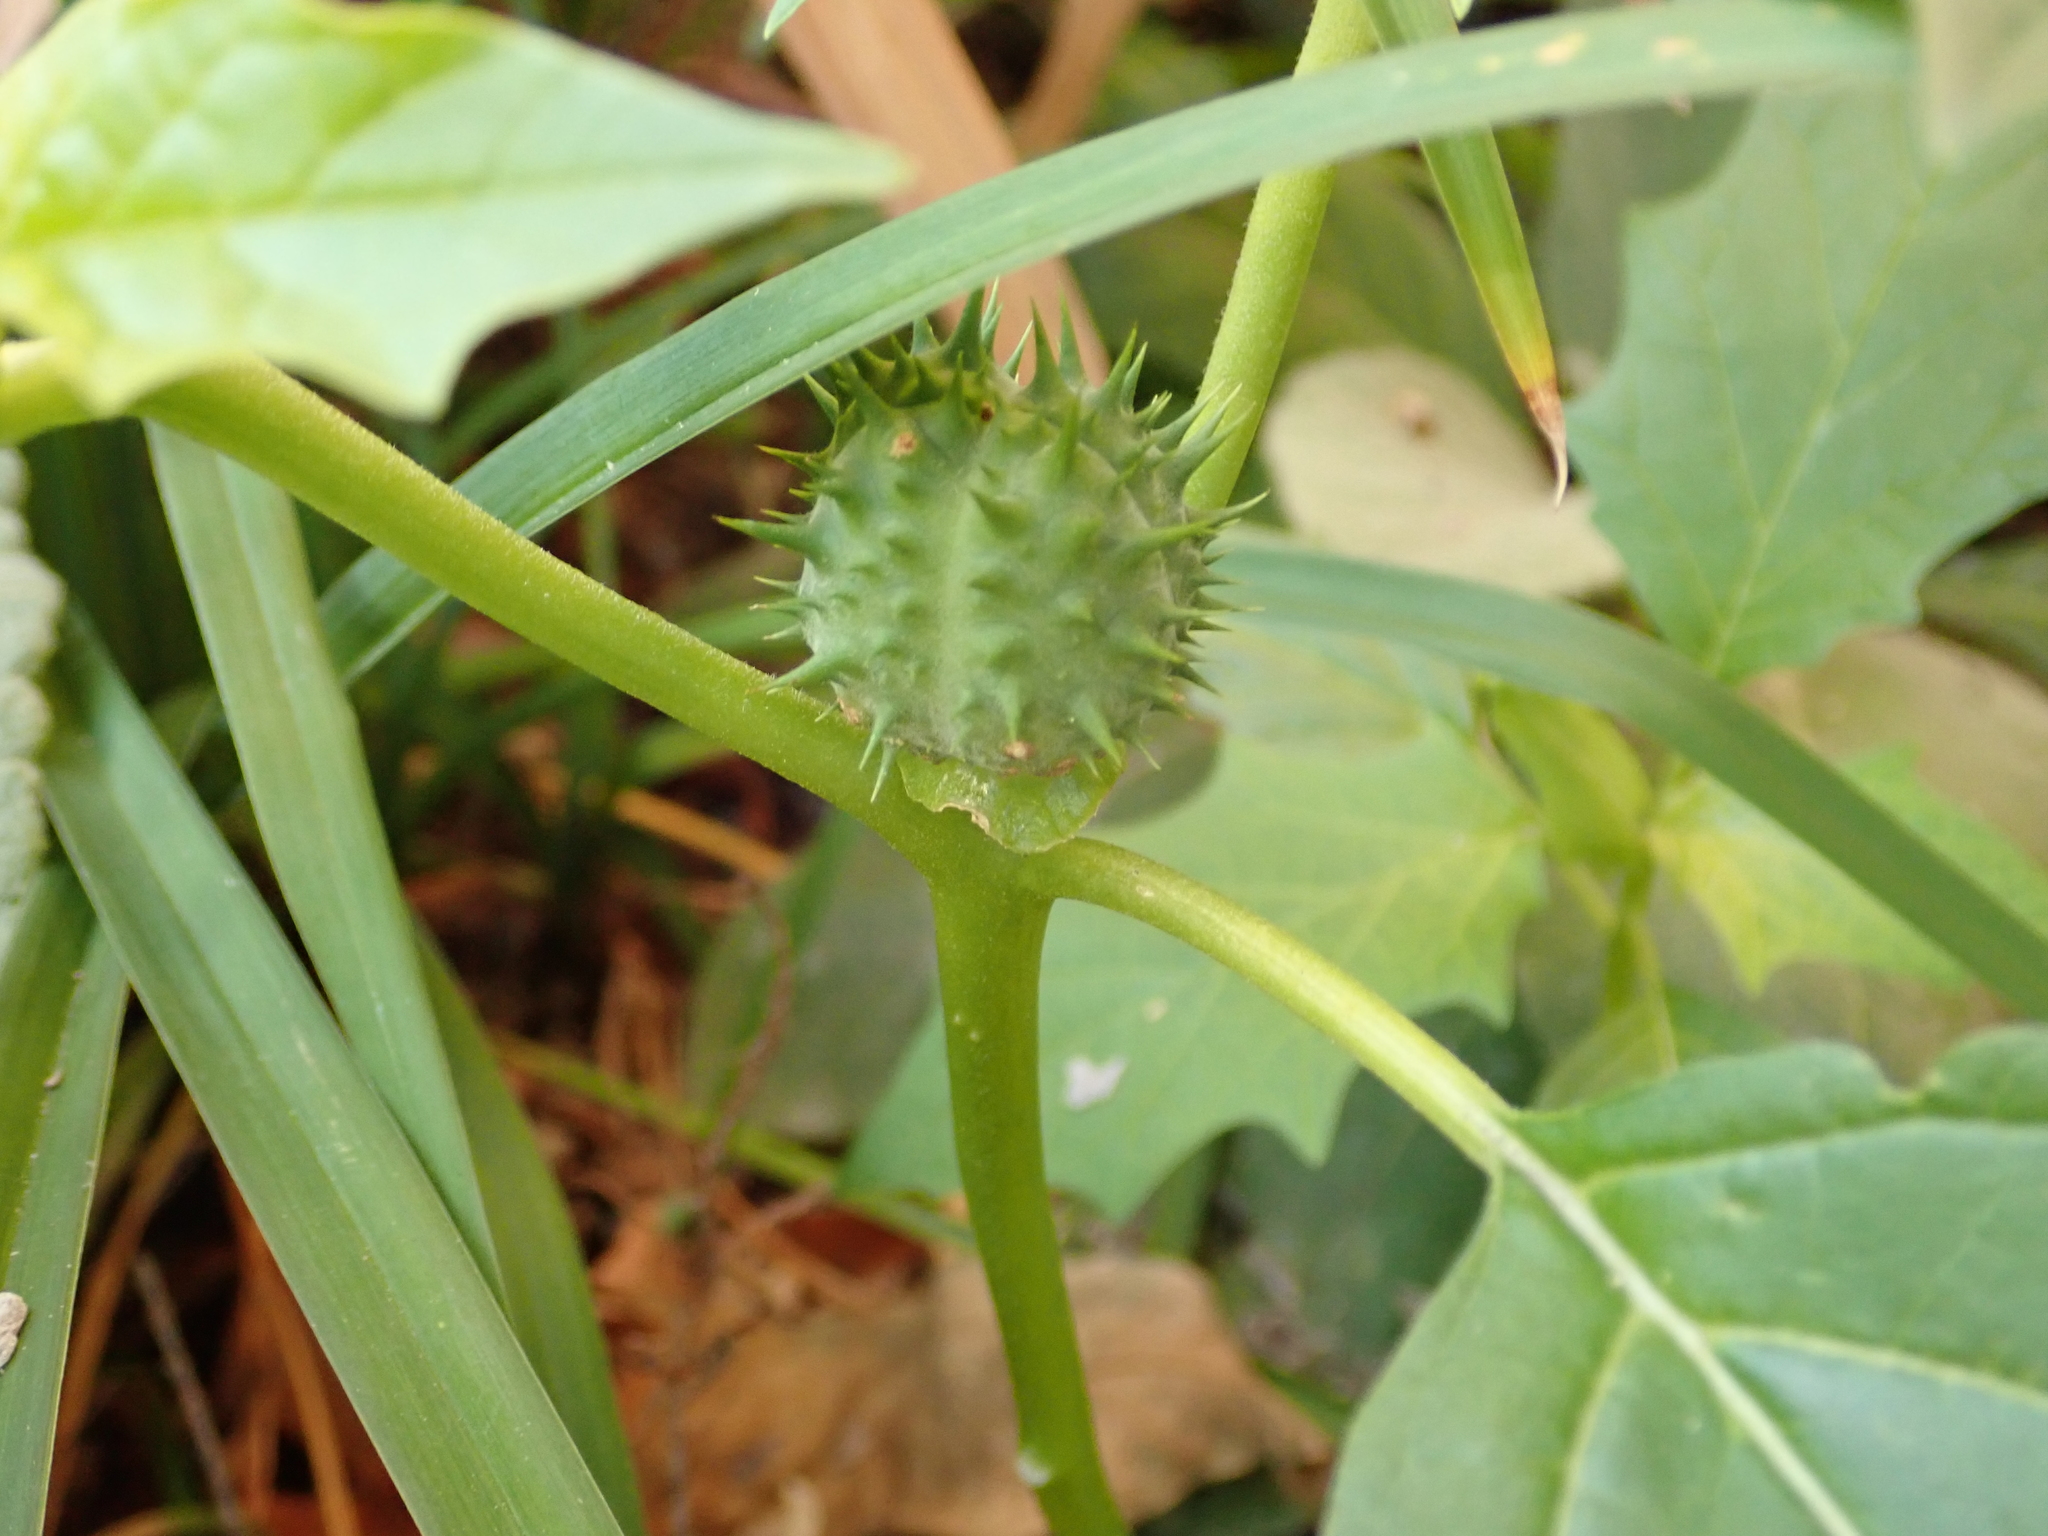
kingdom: Plantae
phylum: Tracheophyta
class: Magnoliopsida
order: Solanales
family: Solanaceae
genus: Datura
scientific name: Datura stramonium
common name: Thorn-apple
